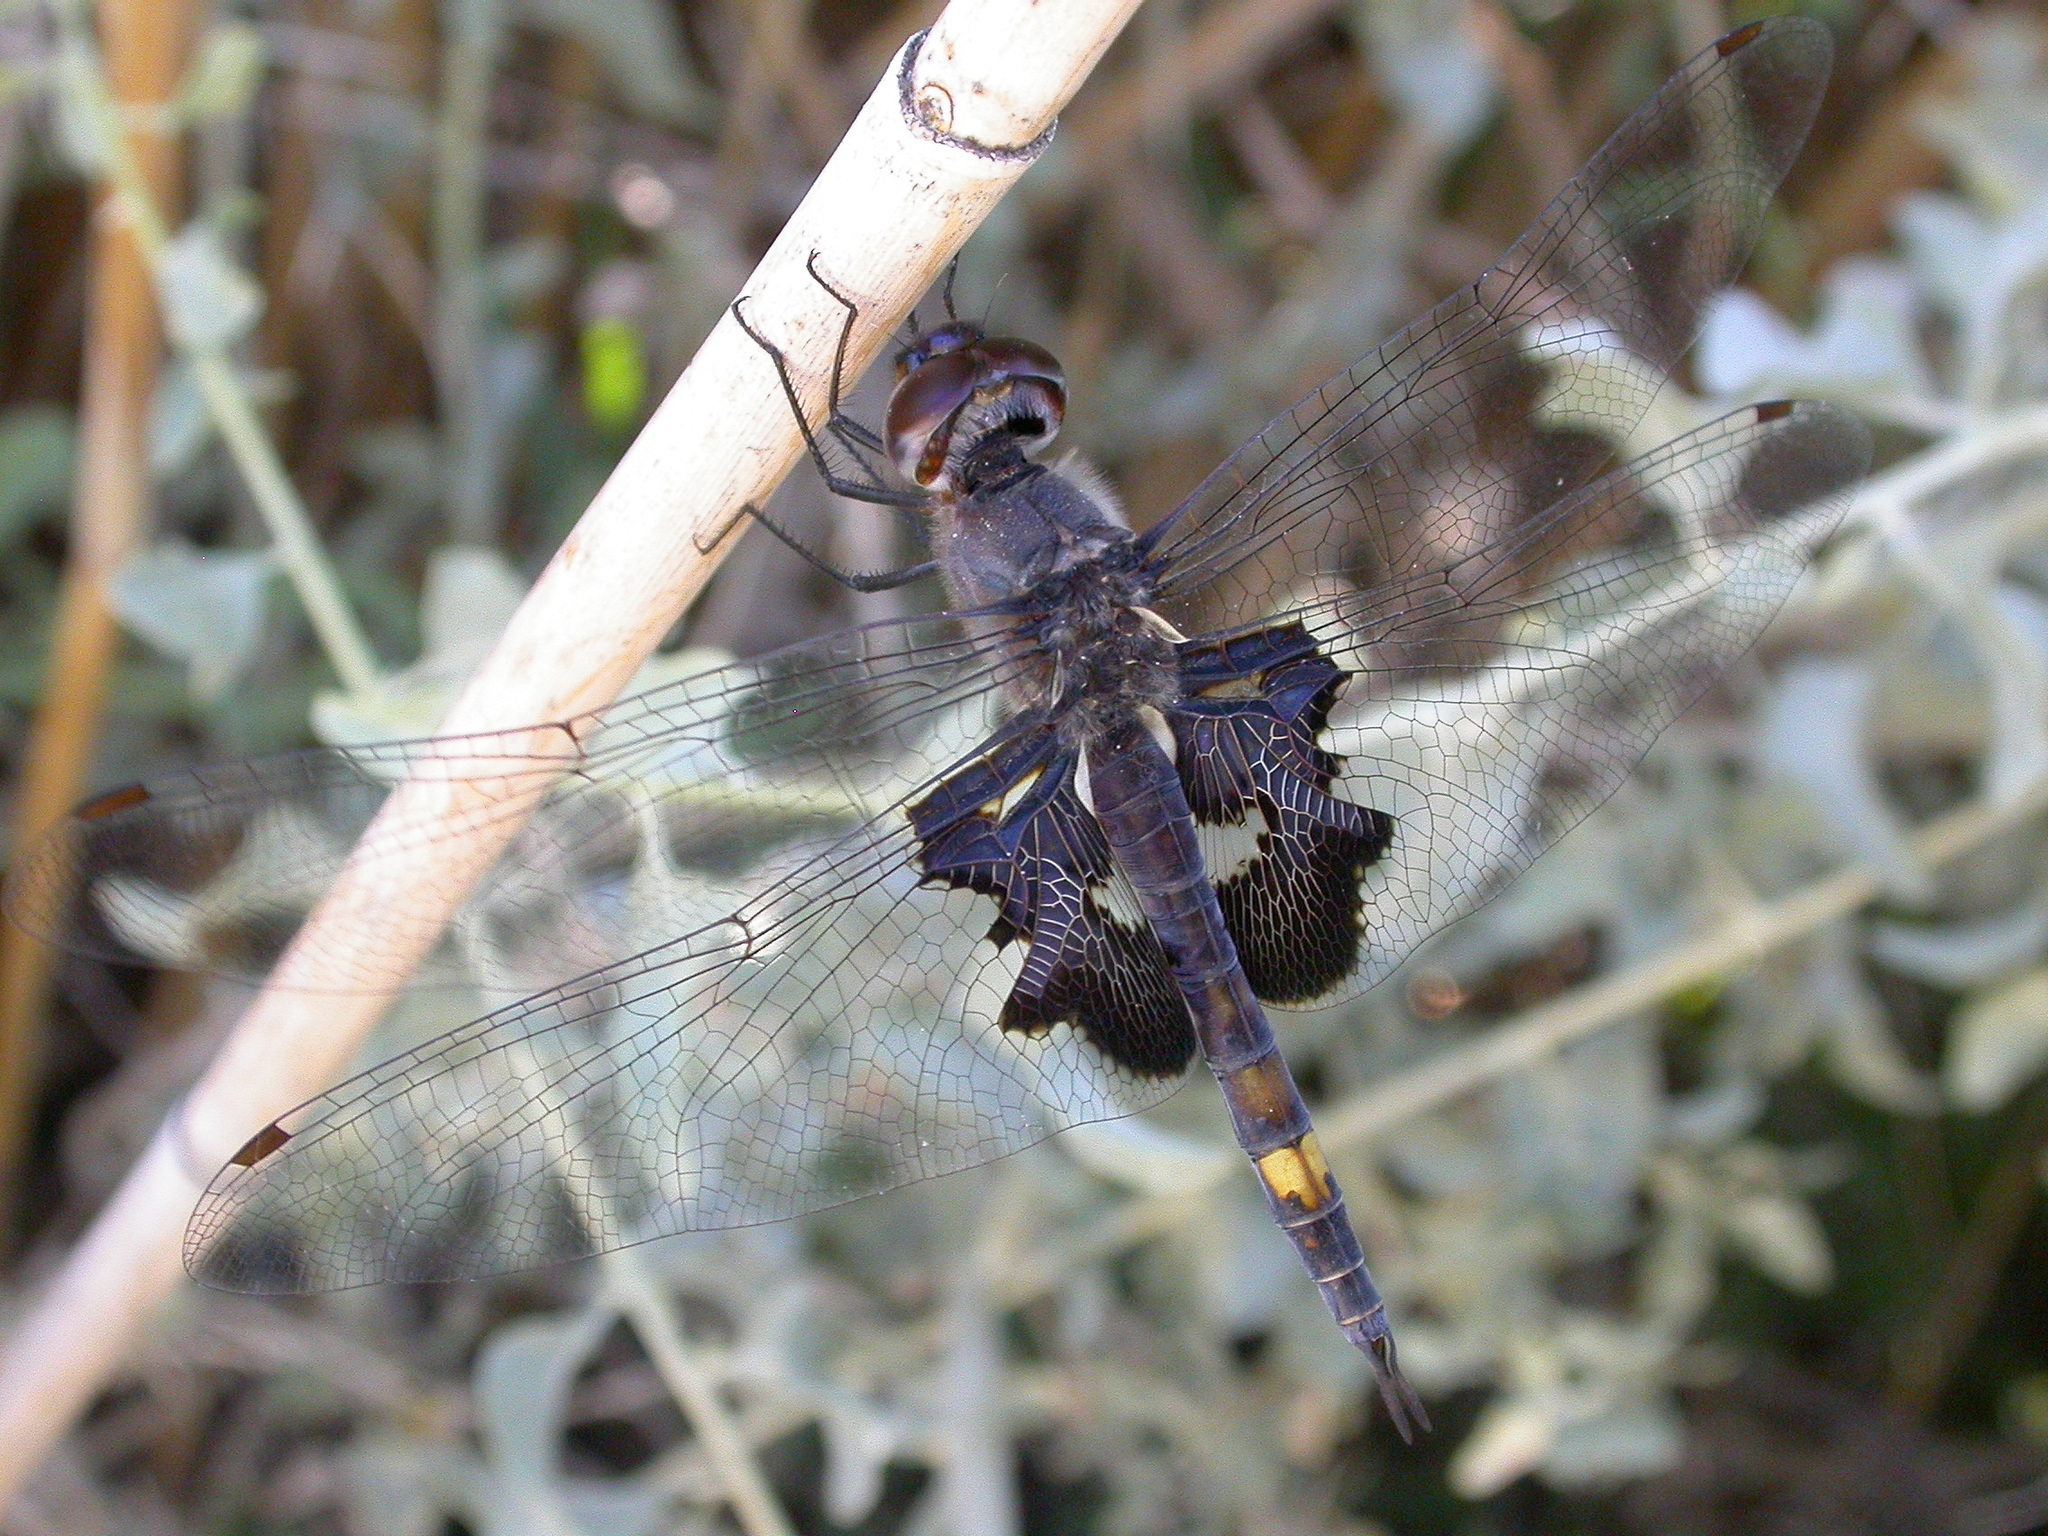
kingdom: Animalia
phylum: Arthropoda
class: Insecta
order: Odonata
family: Libellulidae
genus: Tramea
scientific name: Tramea lacerata
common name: Black saddlebags
